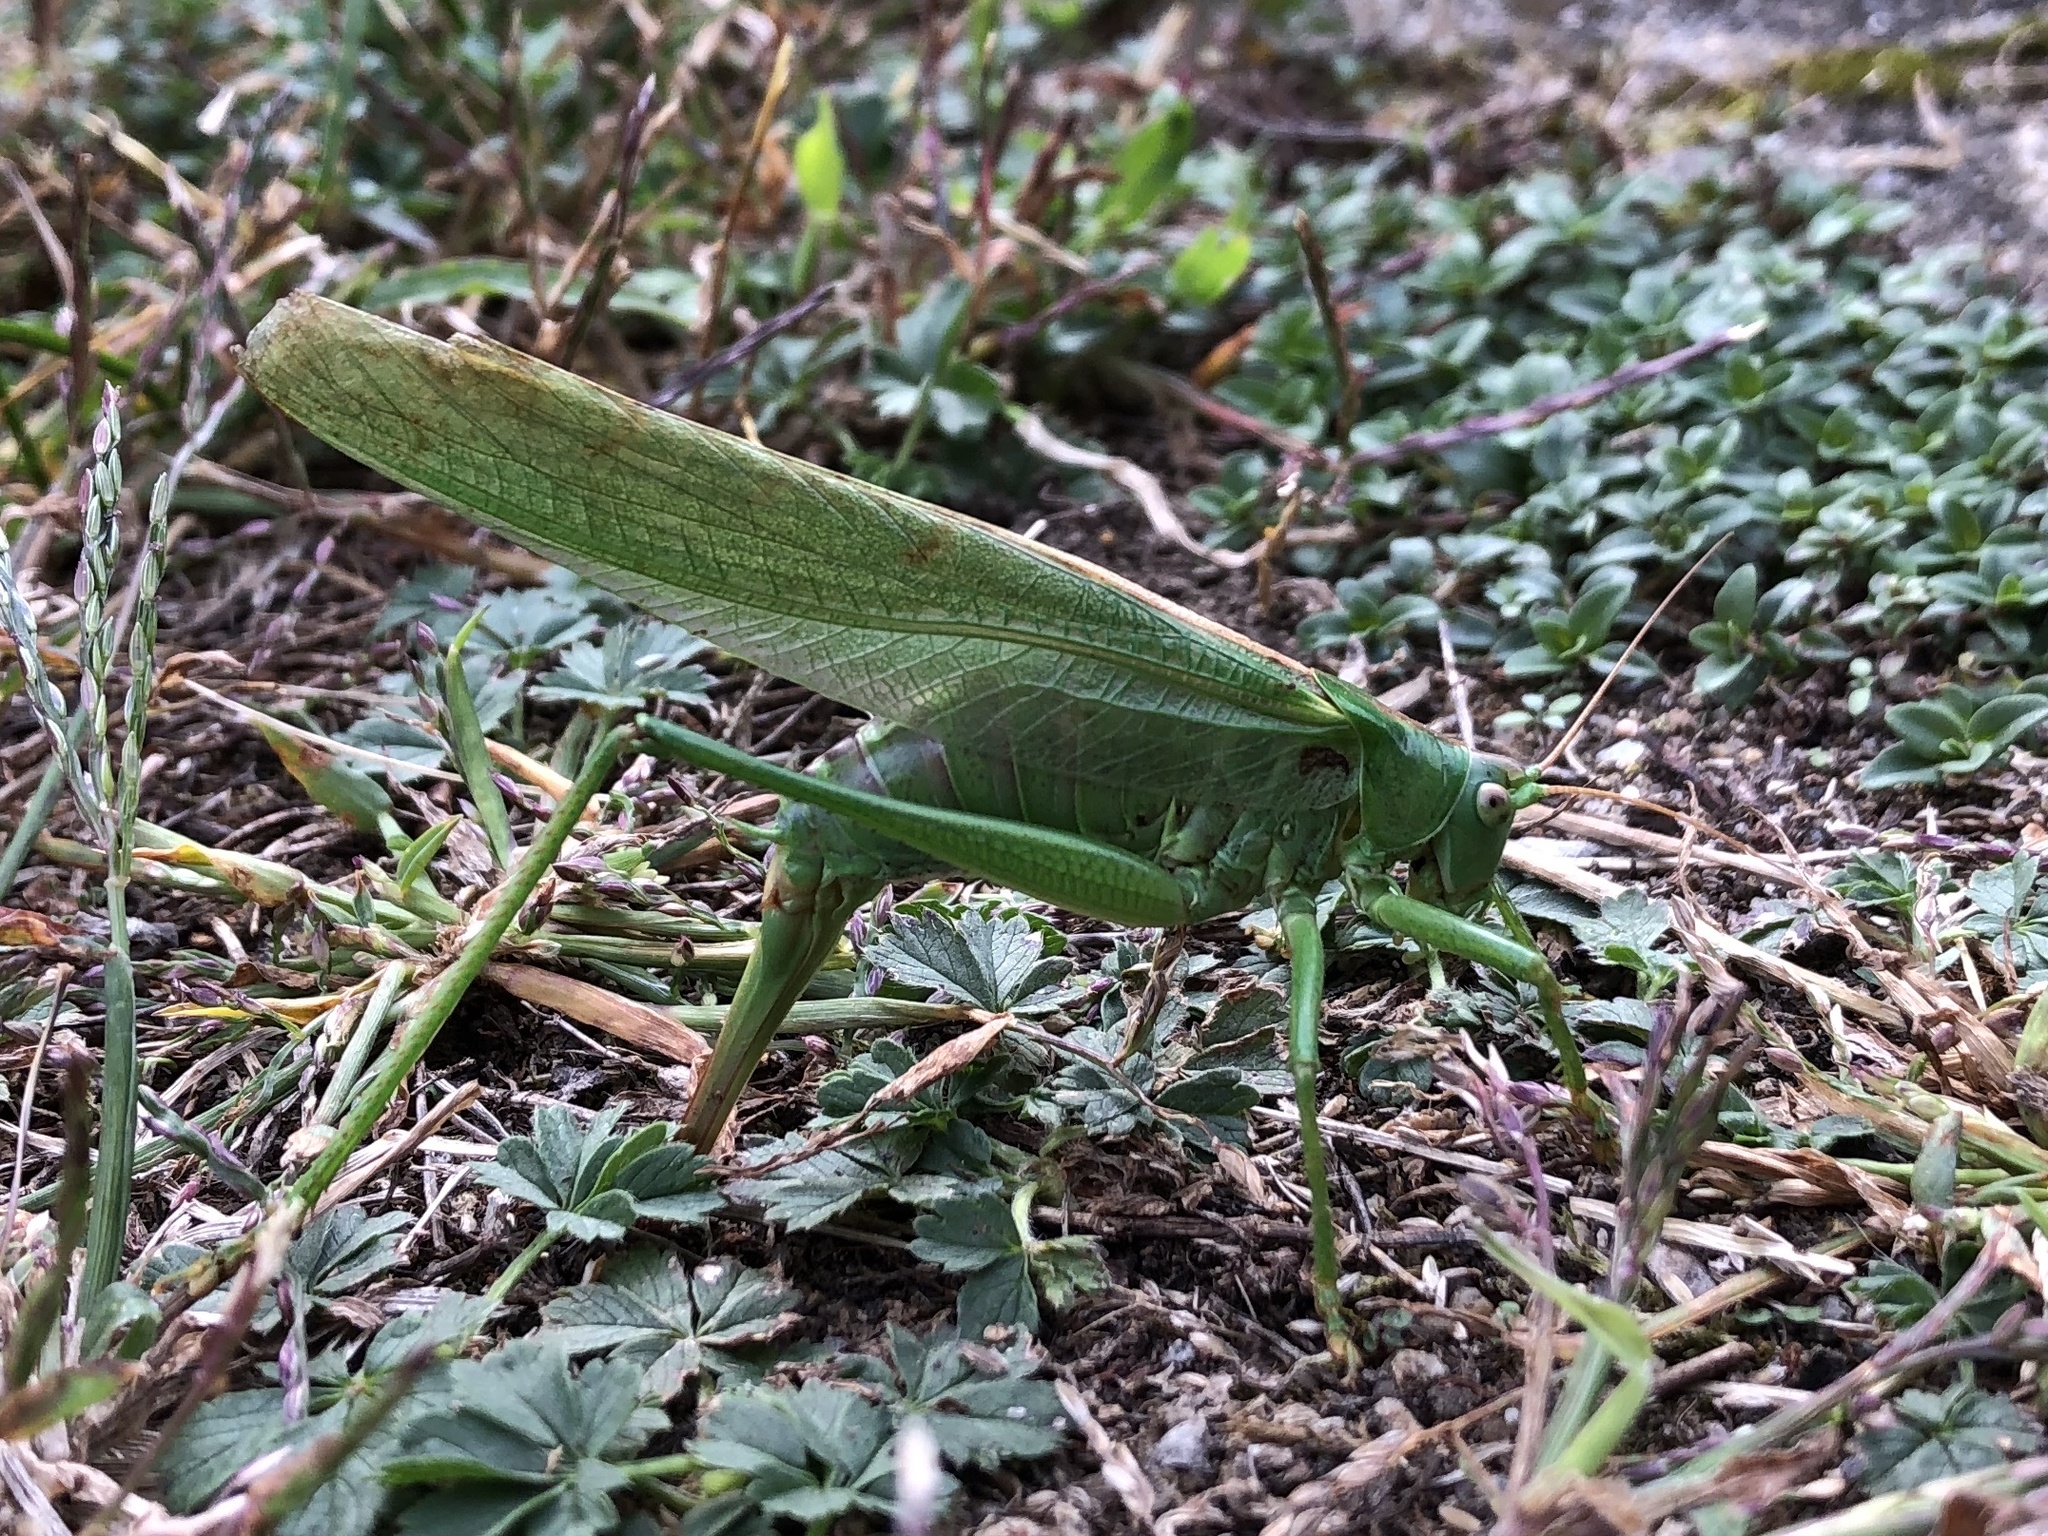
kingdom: Animalia
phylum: Arthropoda
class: Insecta
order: Orthoptera
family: Tettigoniidae
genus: Tettigonia
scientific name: Tettigonia viridissima
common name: Great green bush-cricket
